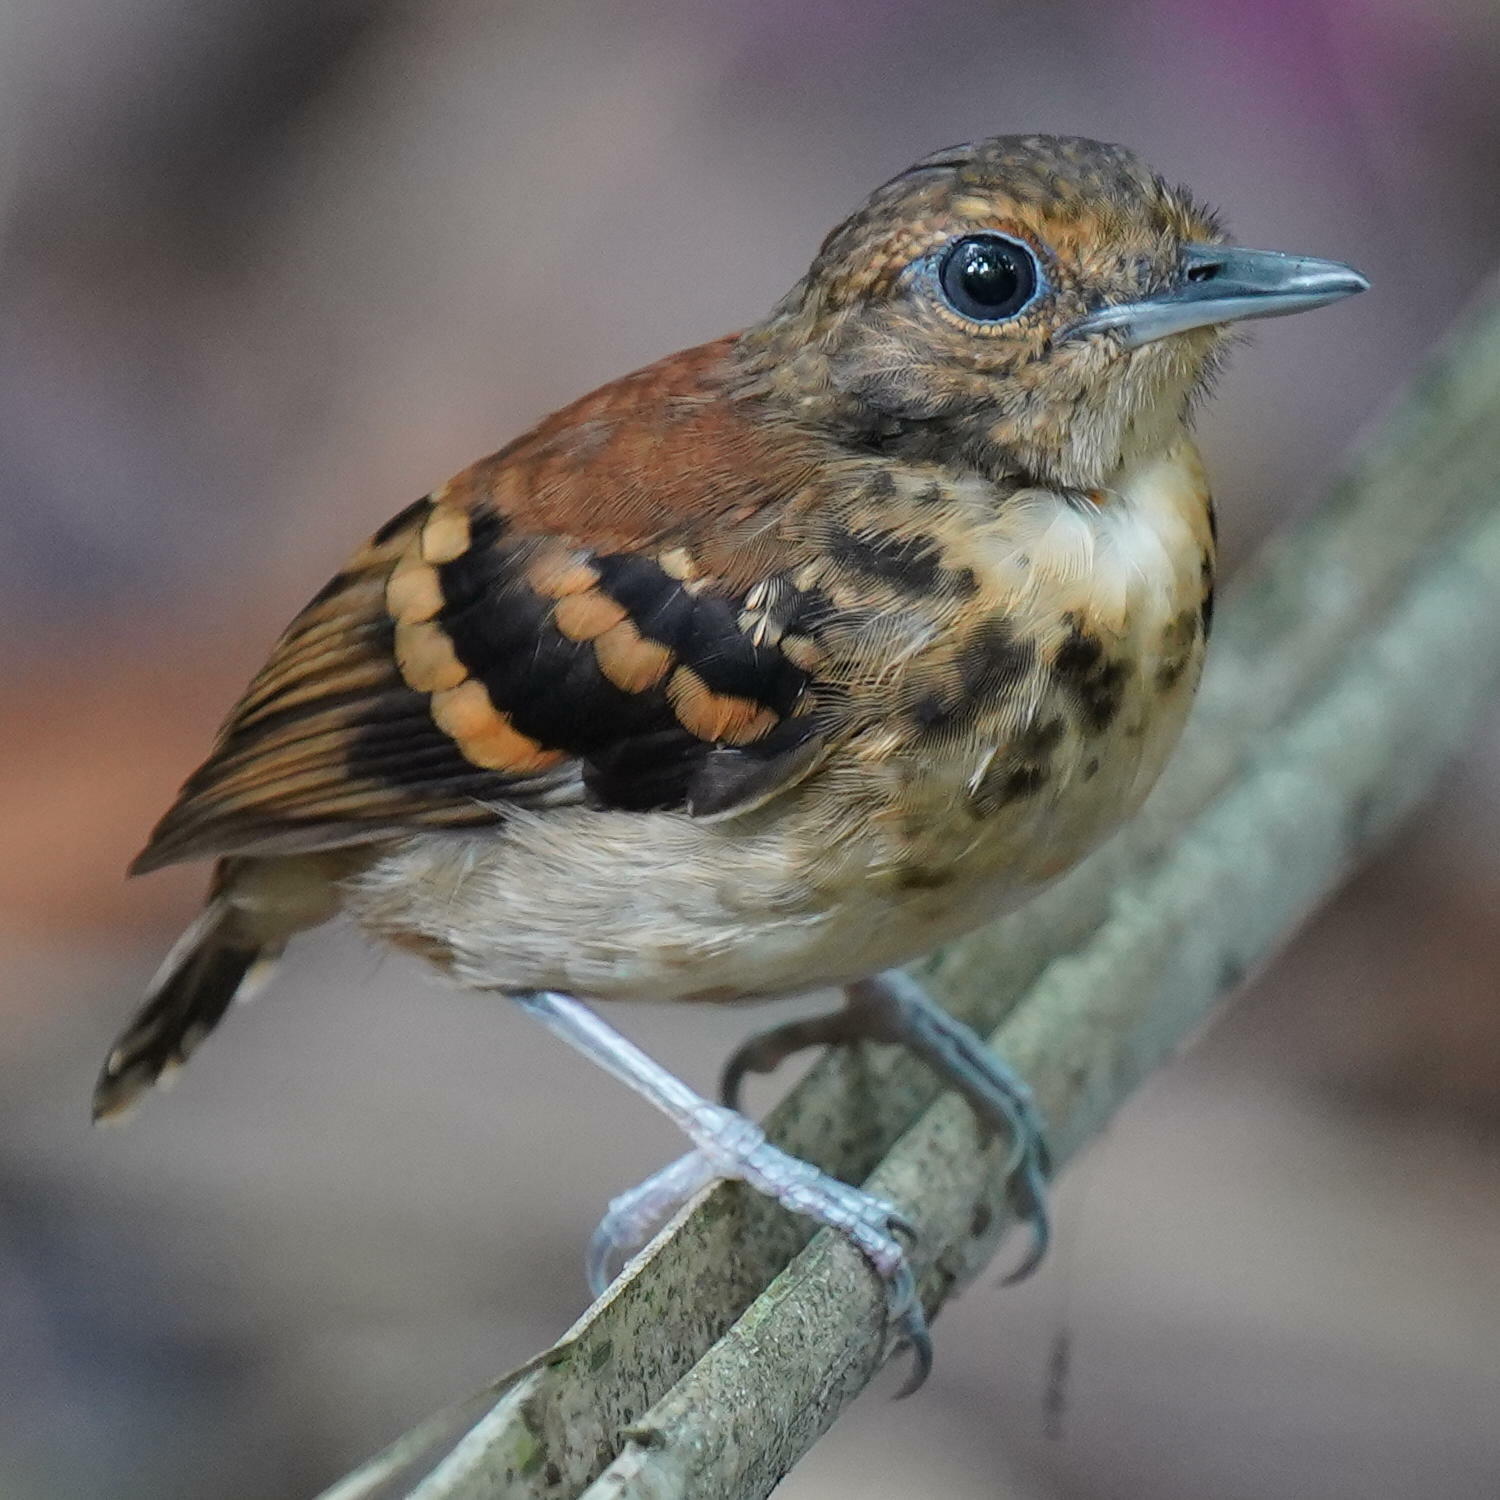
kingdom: Animalia
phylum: Chordata
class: Aves
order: Passeriformes
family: Thamnophilidae
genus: Hylophylax
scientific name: Hylophylax naevioides
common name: Spotted antbird
